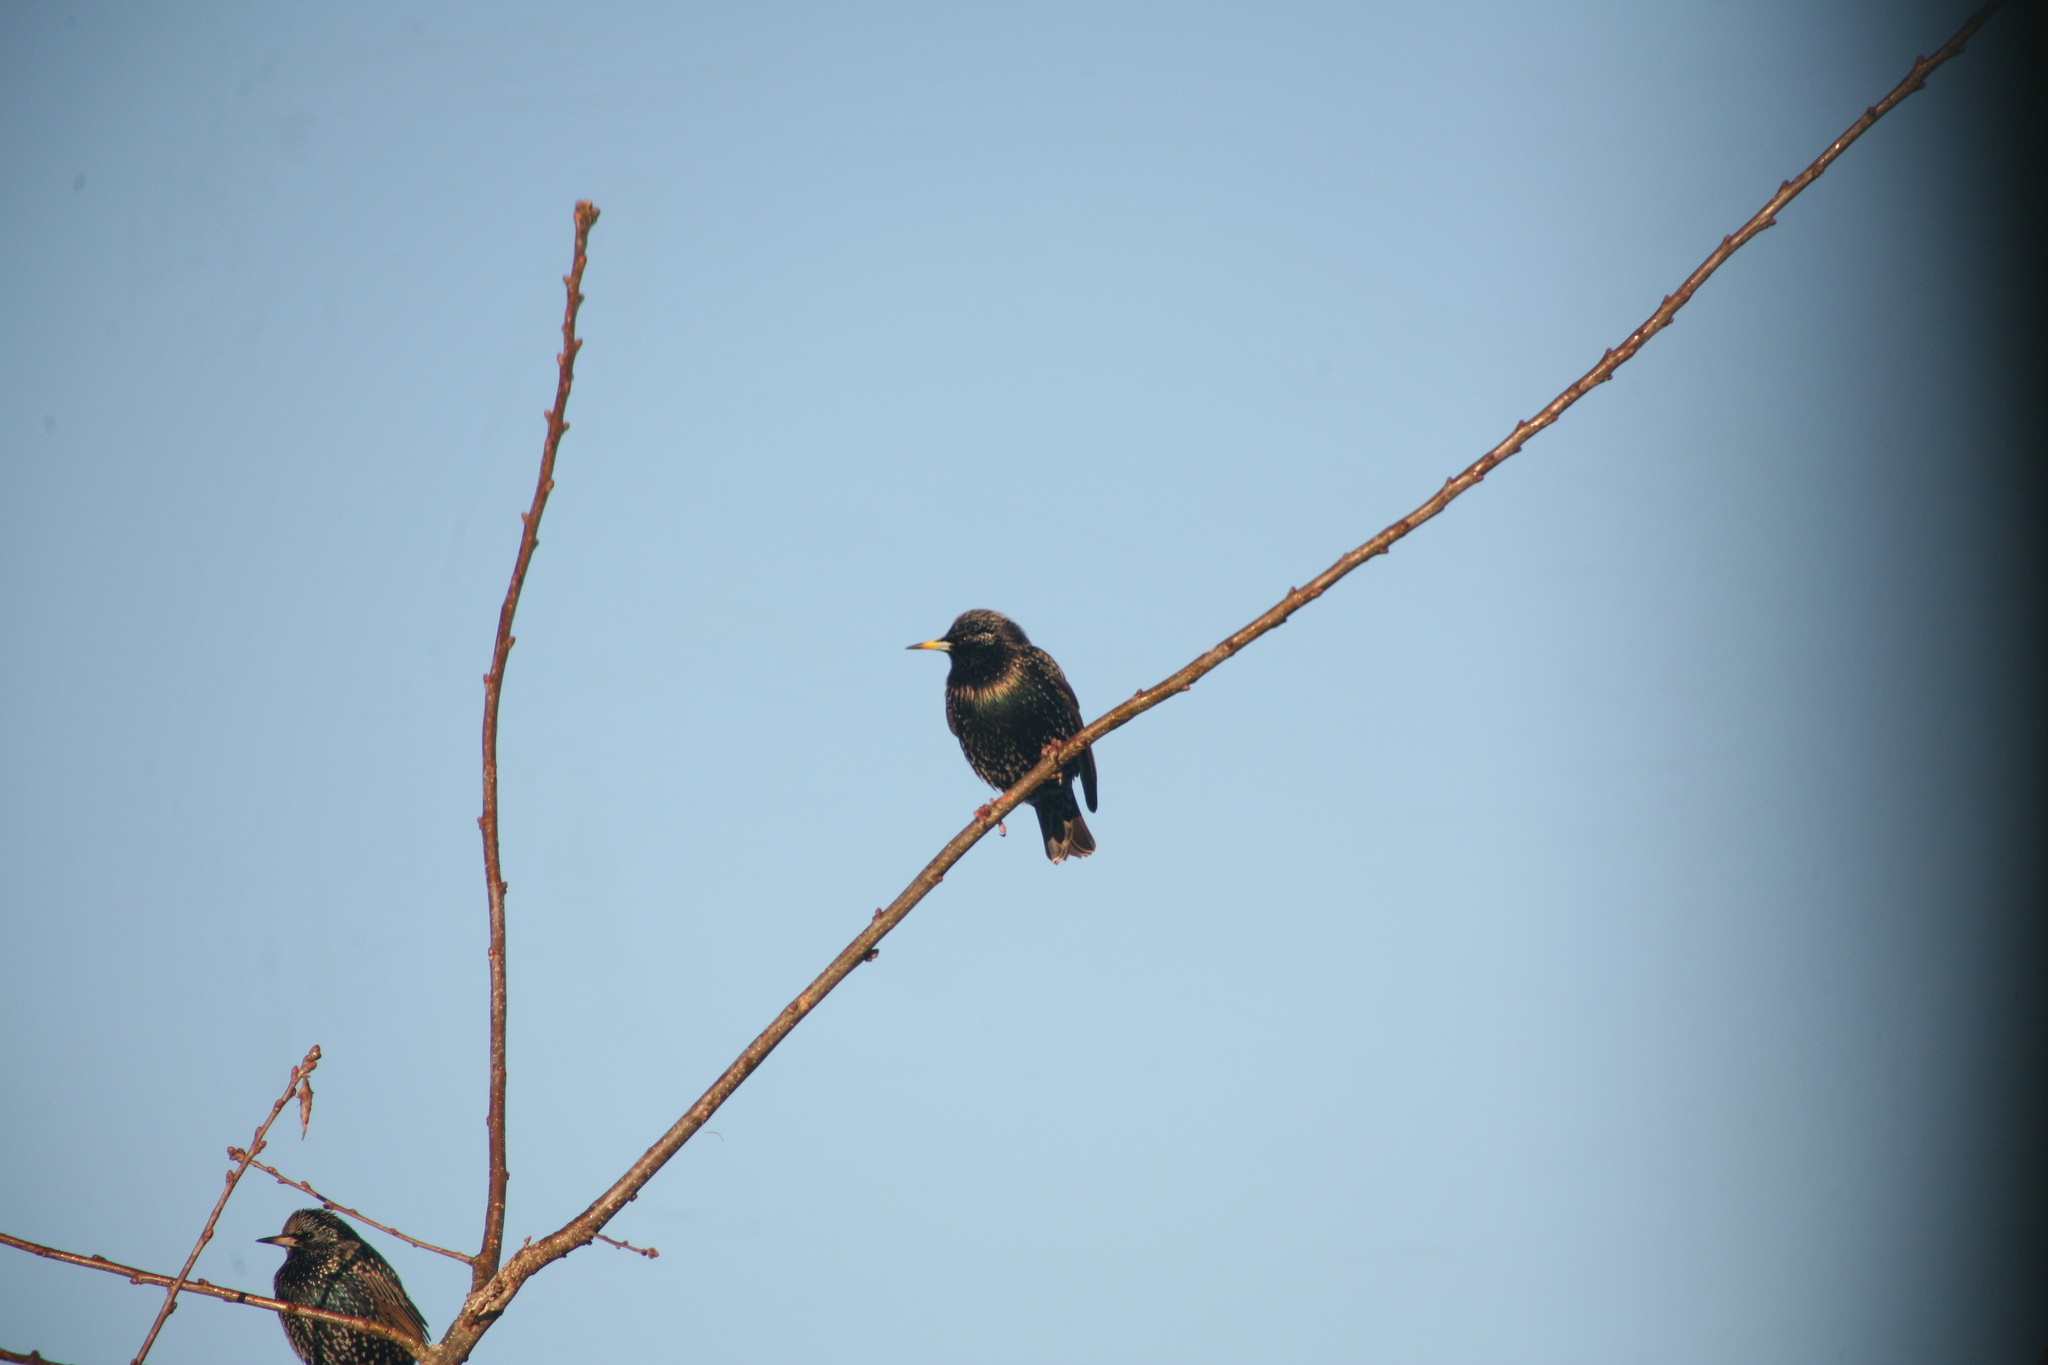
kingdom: Animalia
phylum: Chordata
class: Aves
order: Passeriformes
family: Sturnidae
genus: Sturnus
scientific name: Sturnus vulgaris
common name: Common starling
